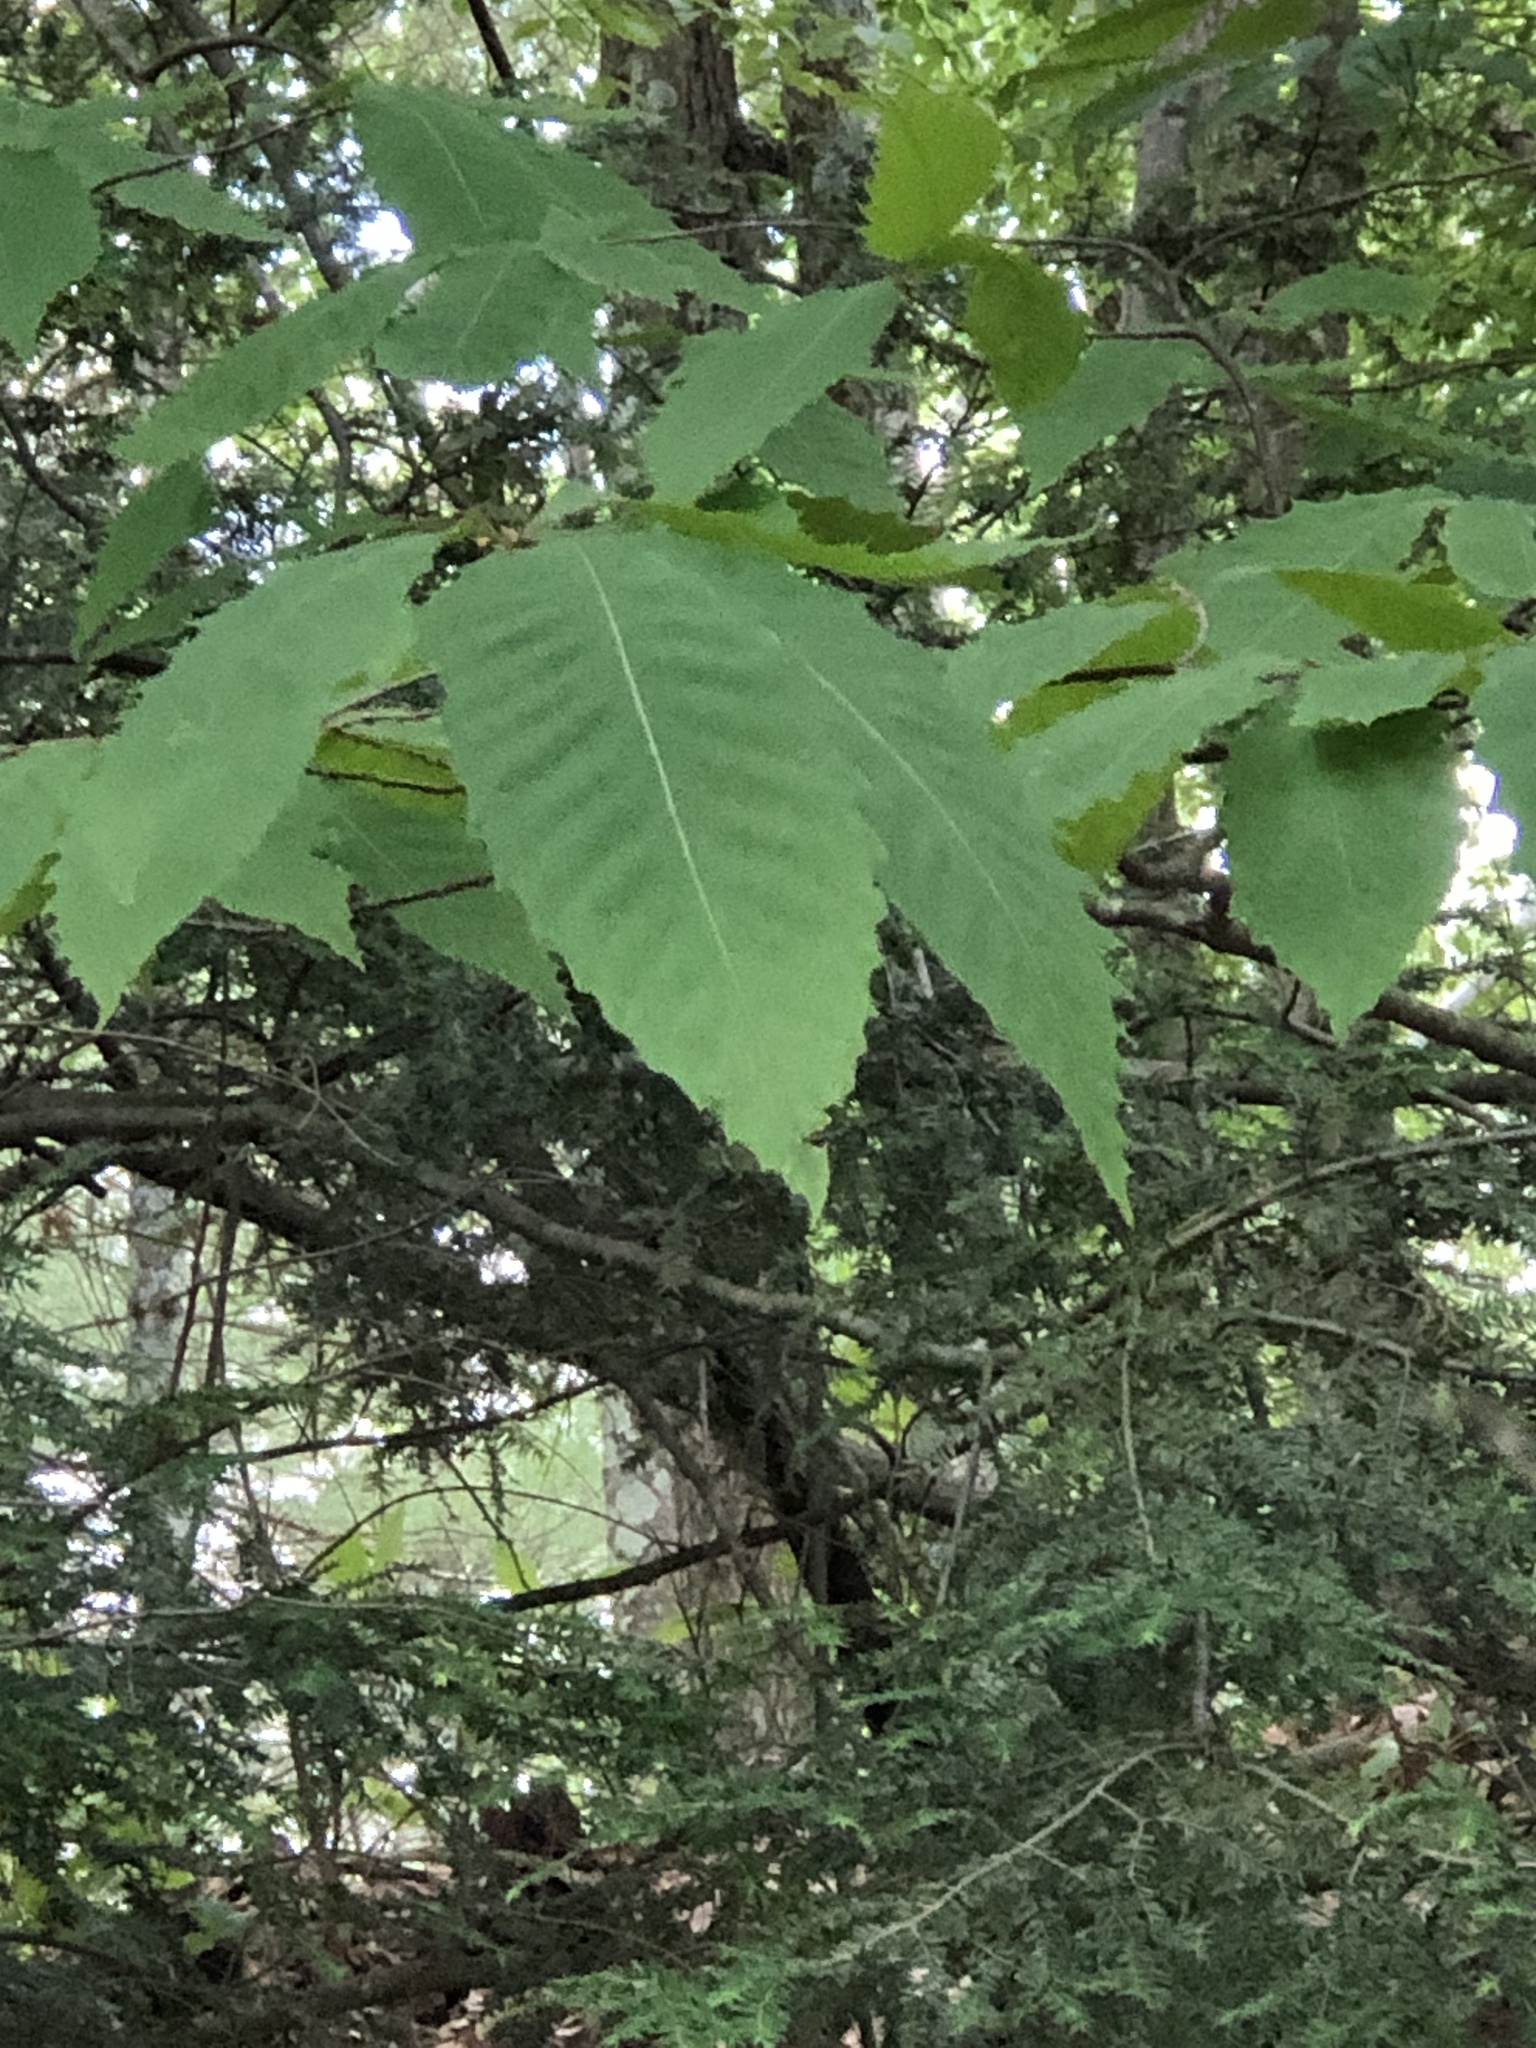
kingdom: Plantae
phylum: Tracheophyta
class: Magnoliopsida
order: Fagales
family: Fagaceae
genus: Castanea
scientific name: Castanea dentata
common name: American chestnut
